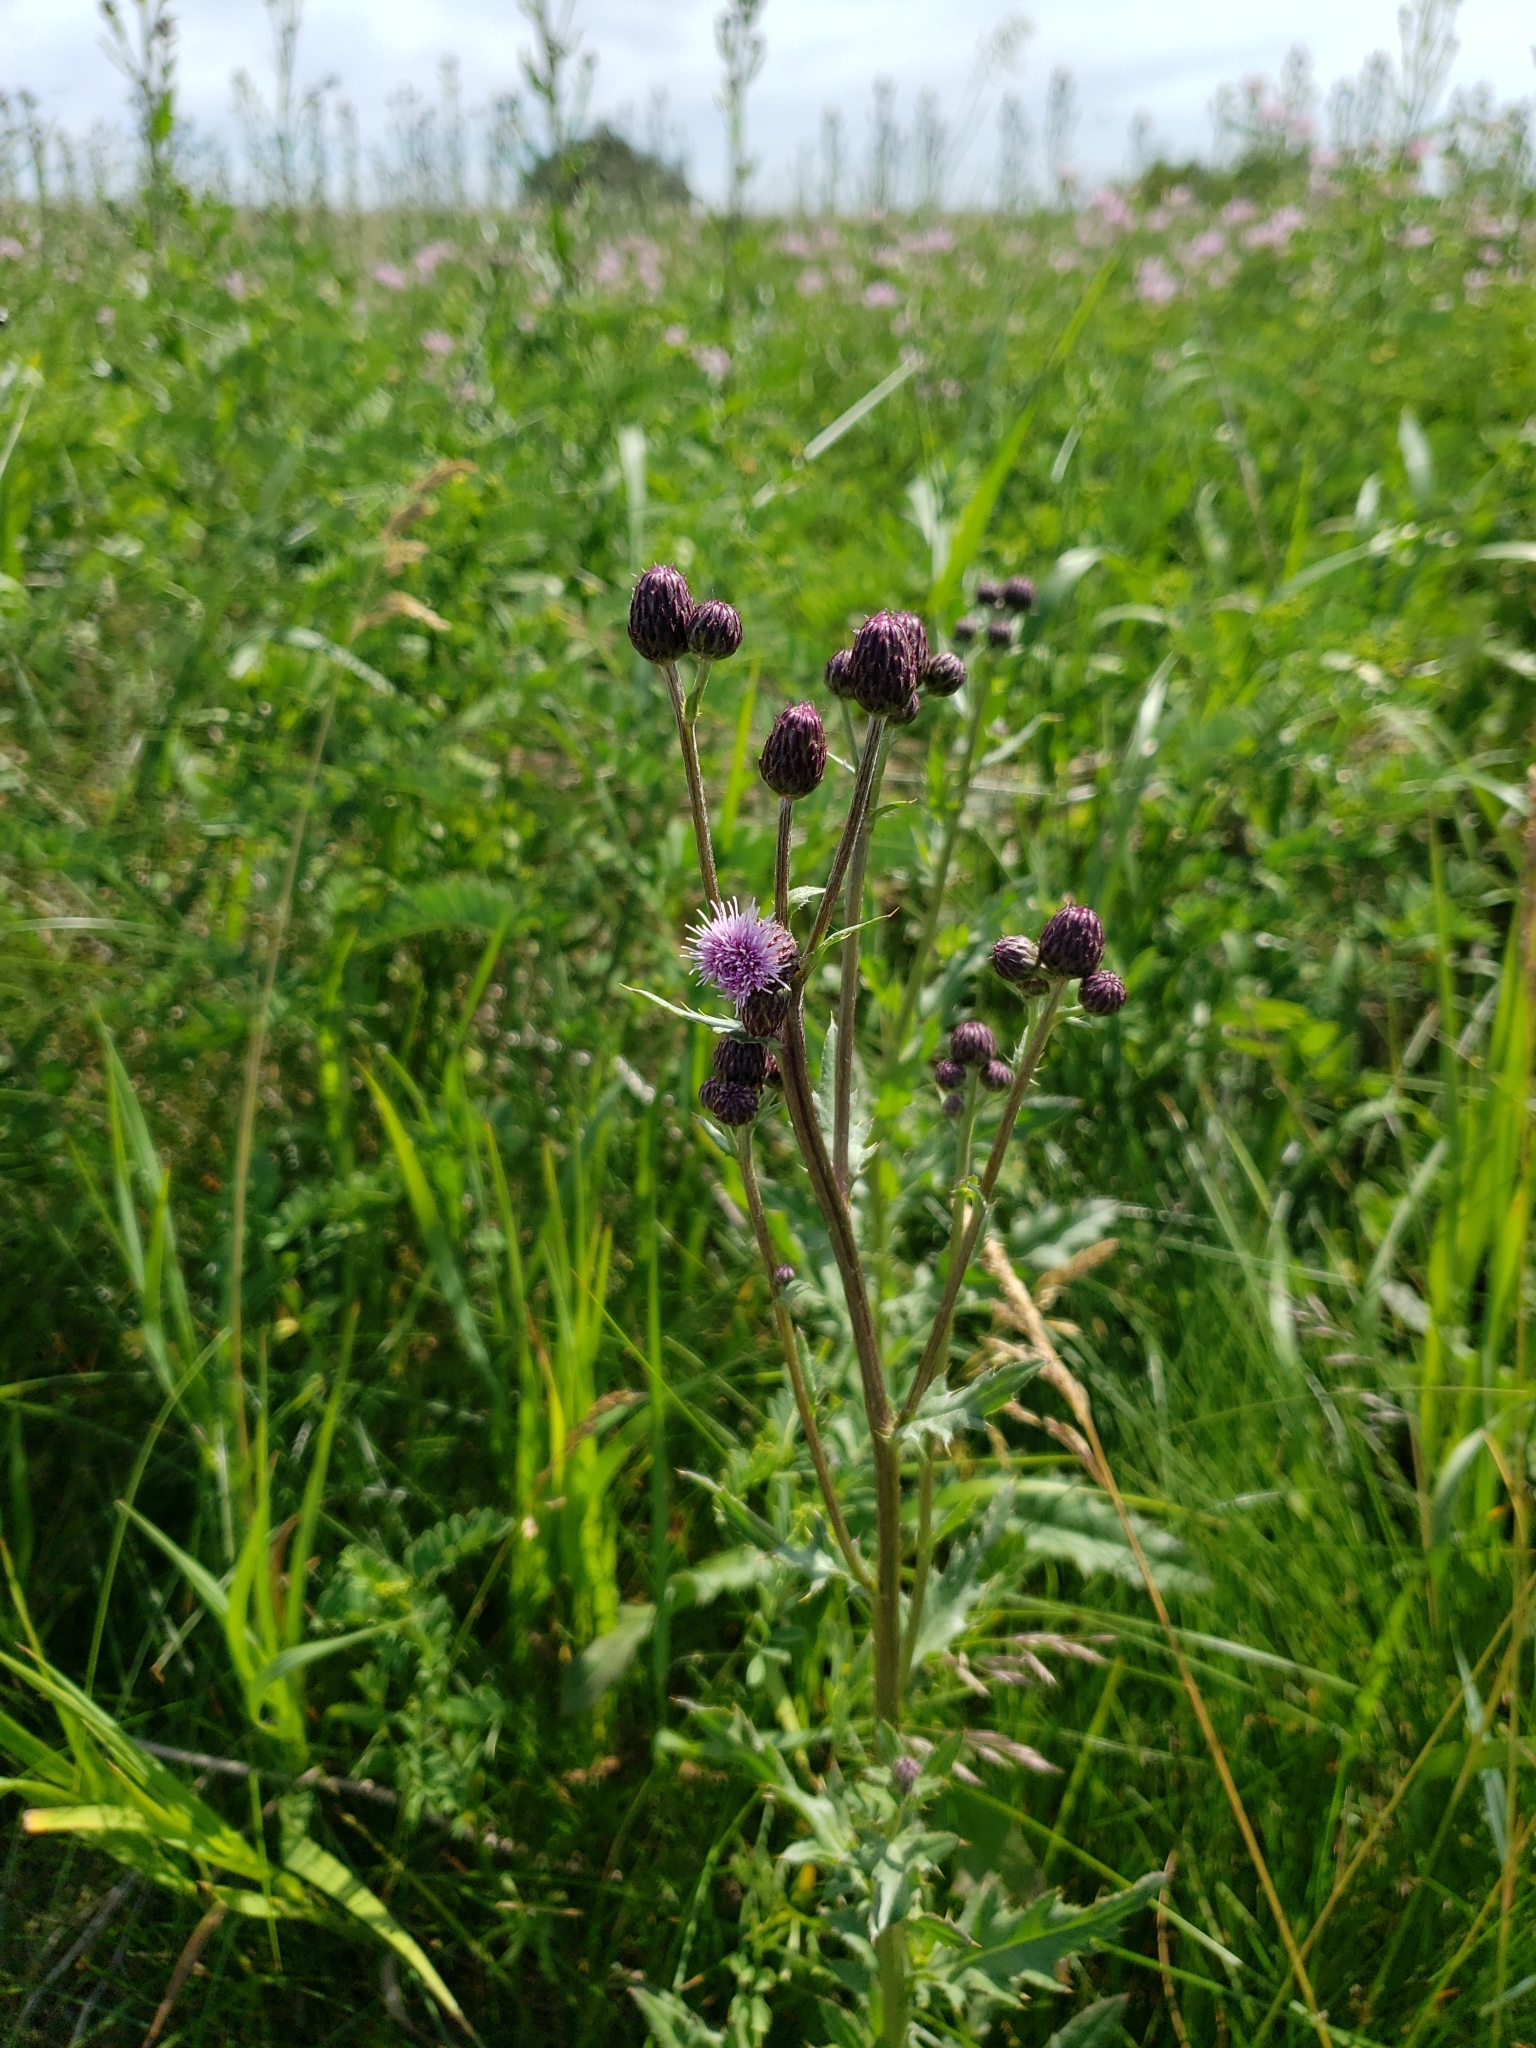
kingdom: Plantae
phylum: Tracheophyta
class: Magnoliopsida
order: Asterales
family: Asteraceae
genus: Cirsium
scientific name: Cirsium arvense
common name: Creeping thistle
